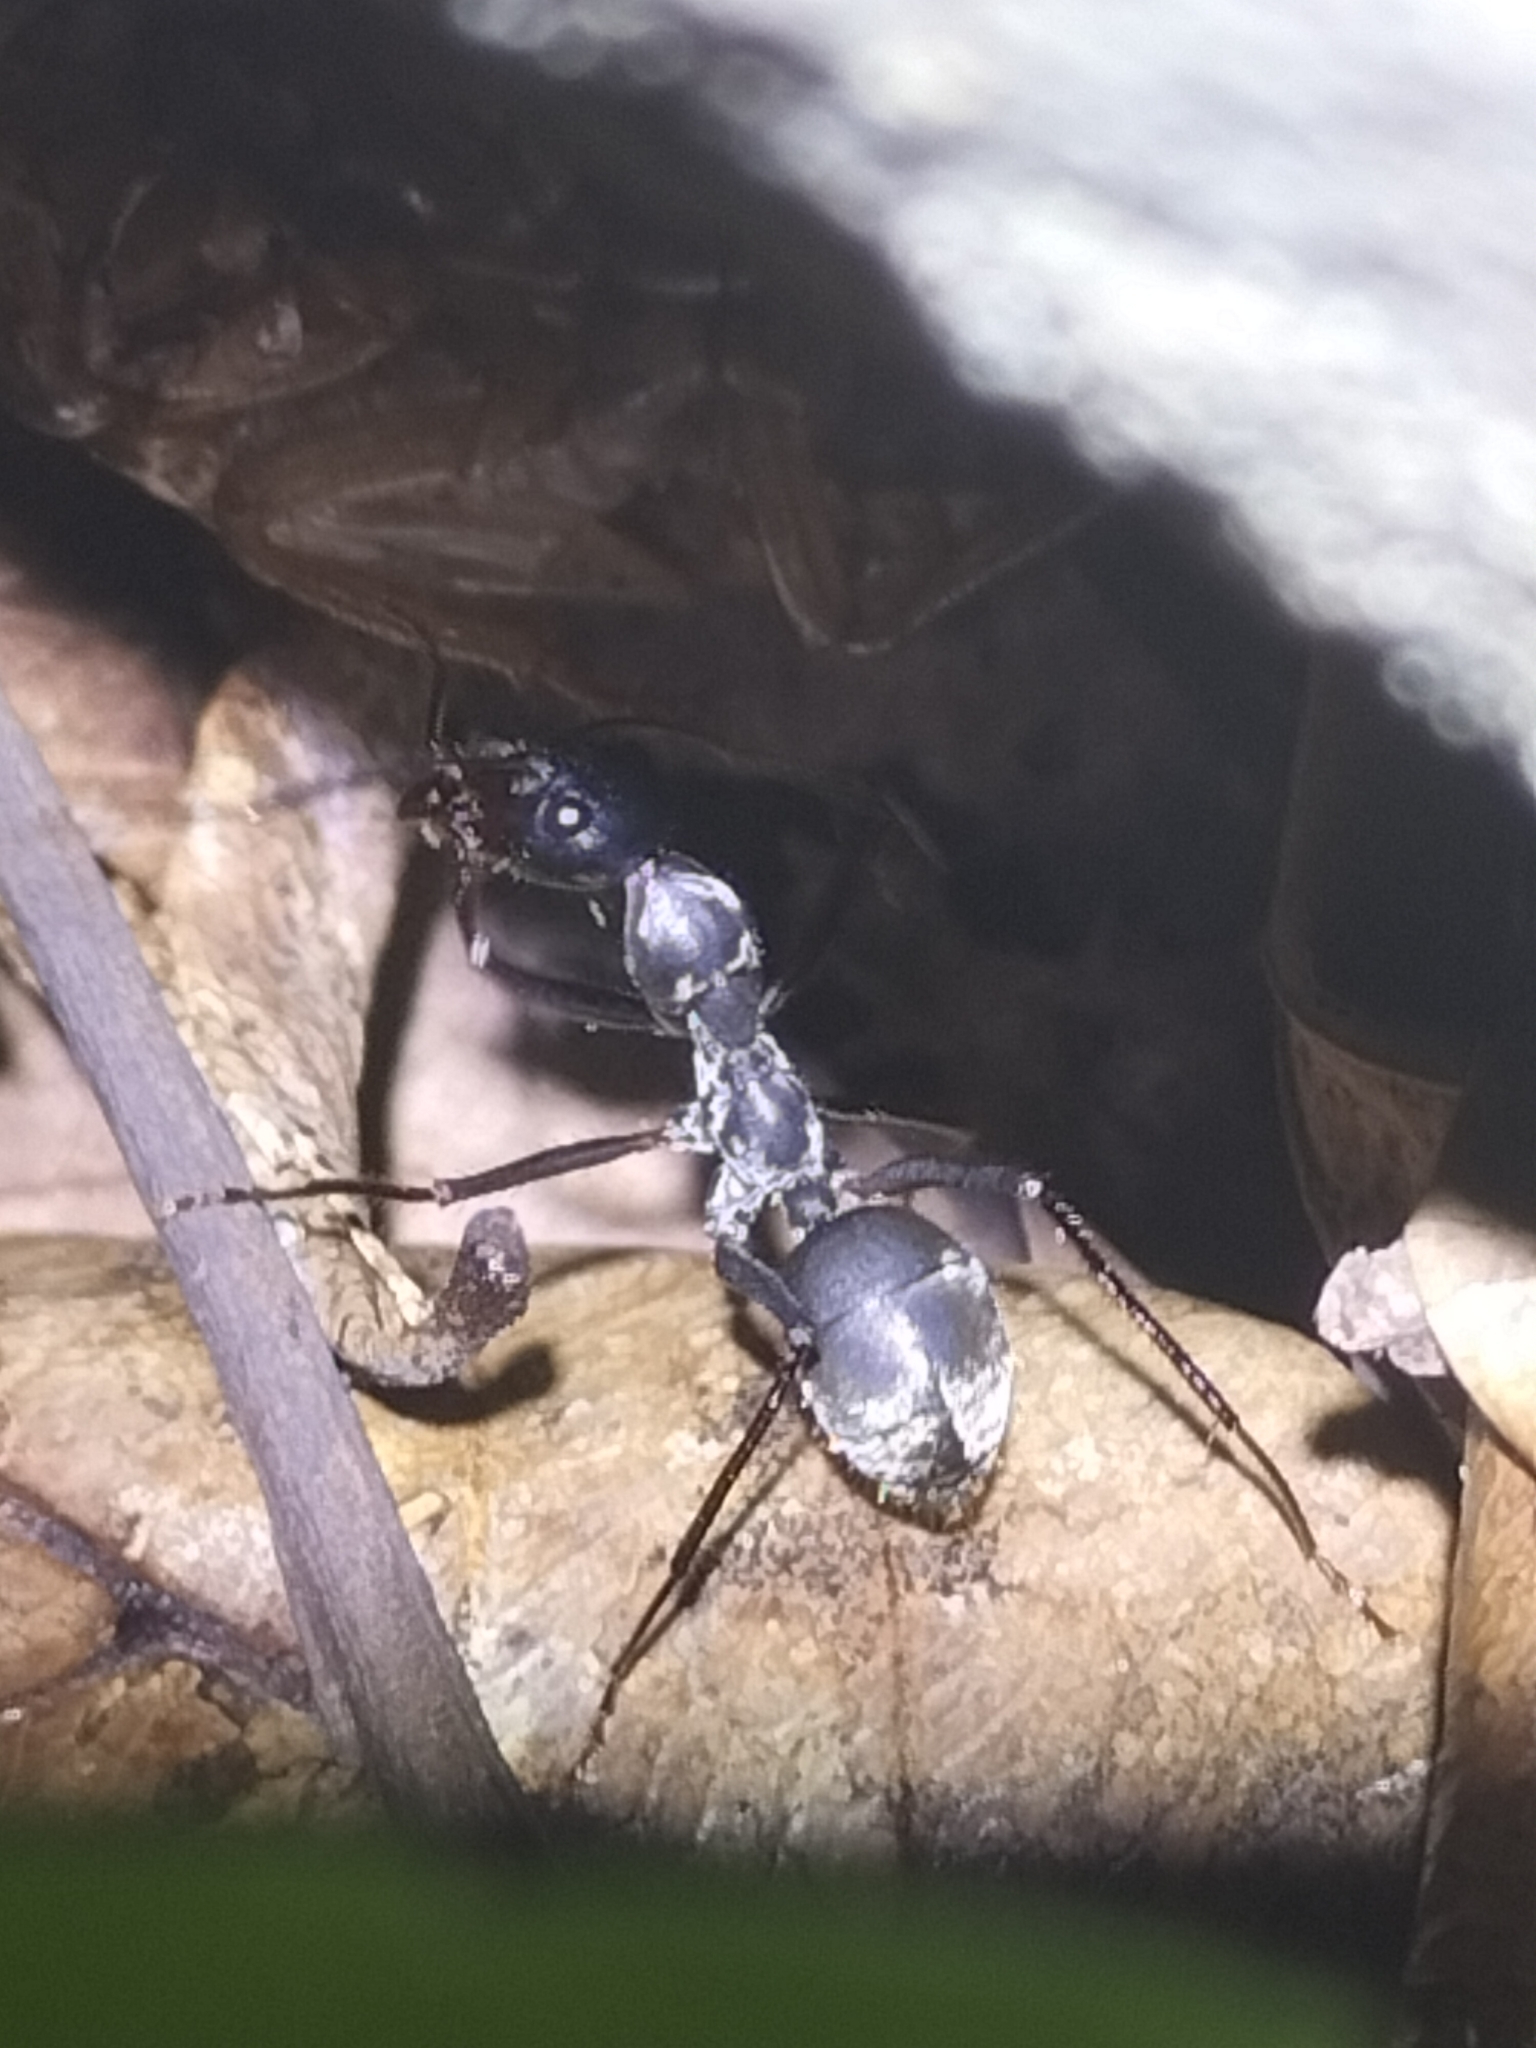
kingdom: Animalia
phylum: Arthropoda
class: Insecta
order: Hymenoptera
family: Formicidae
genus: Notostigma
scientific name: Notostigma carazzii
